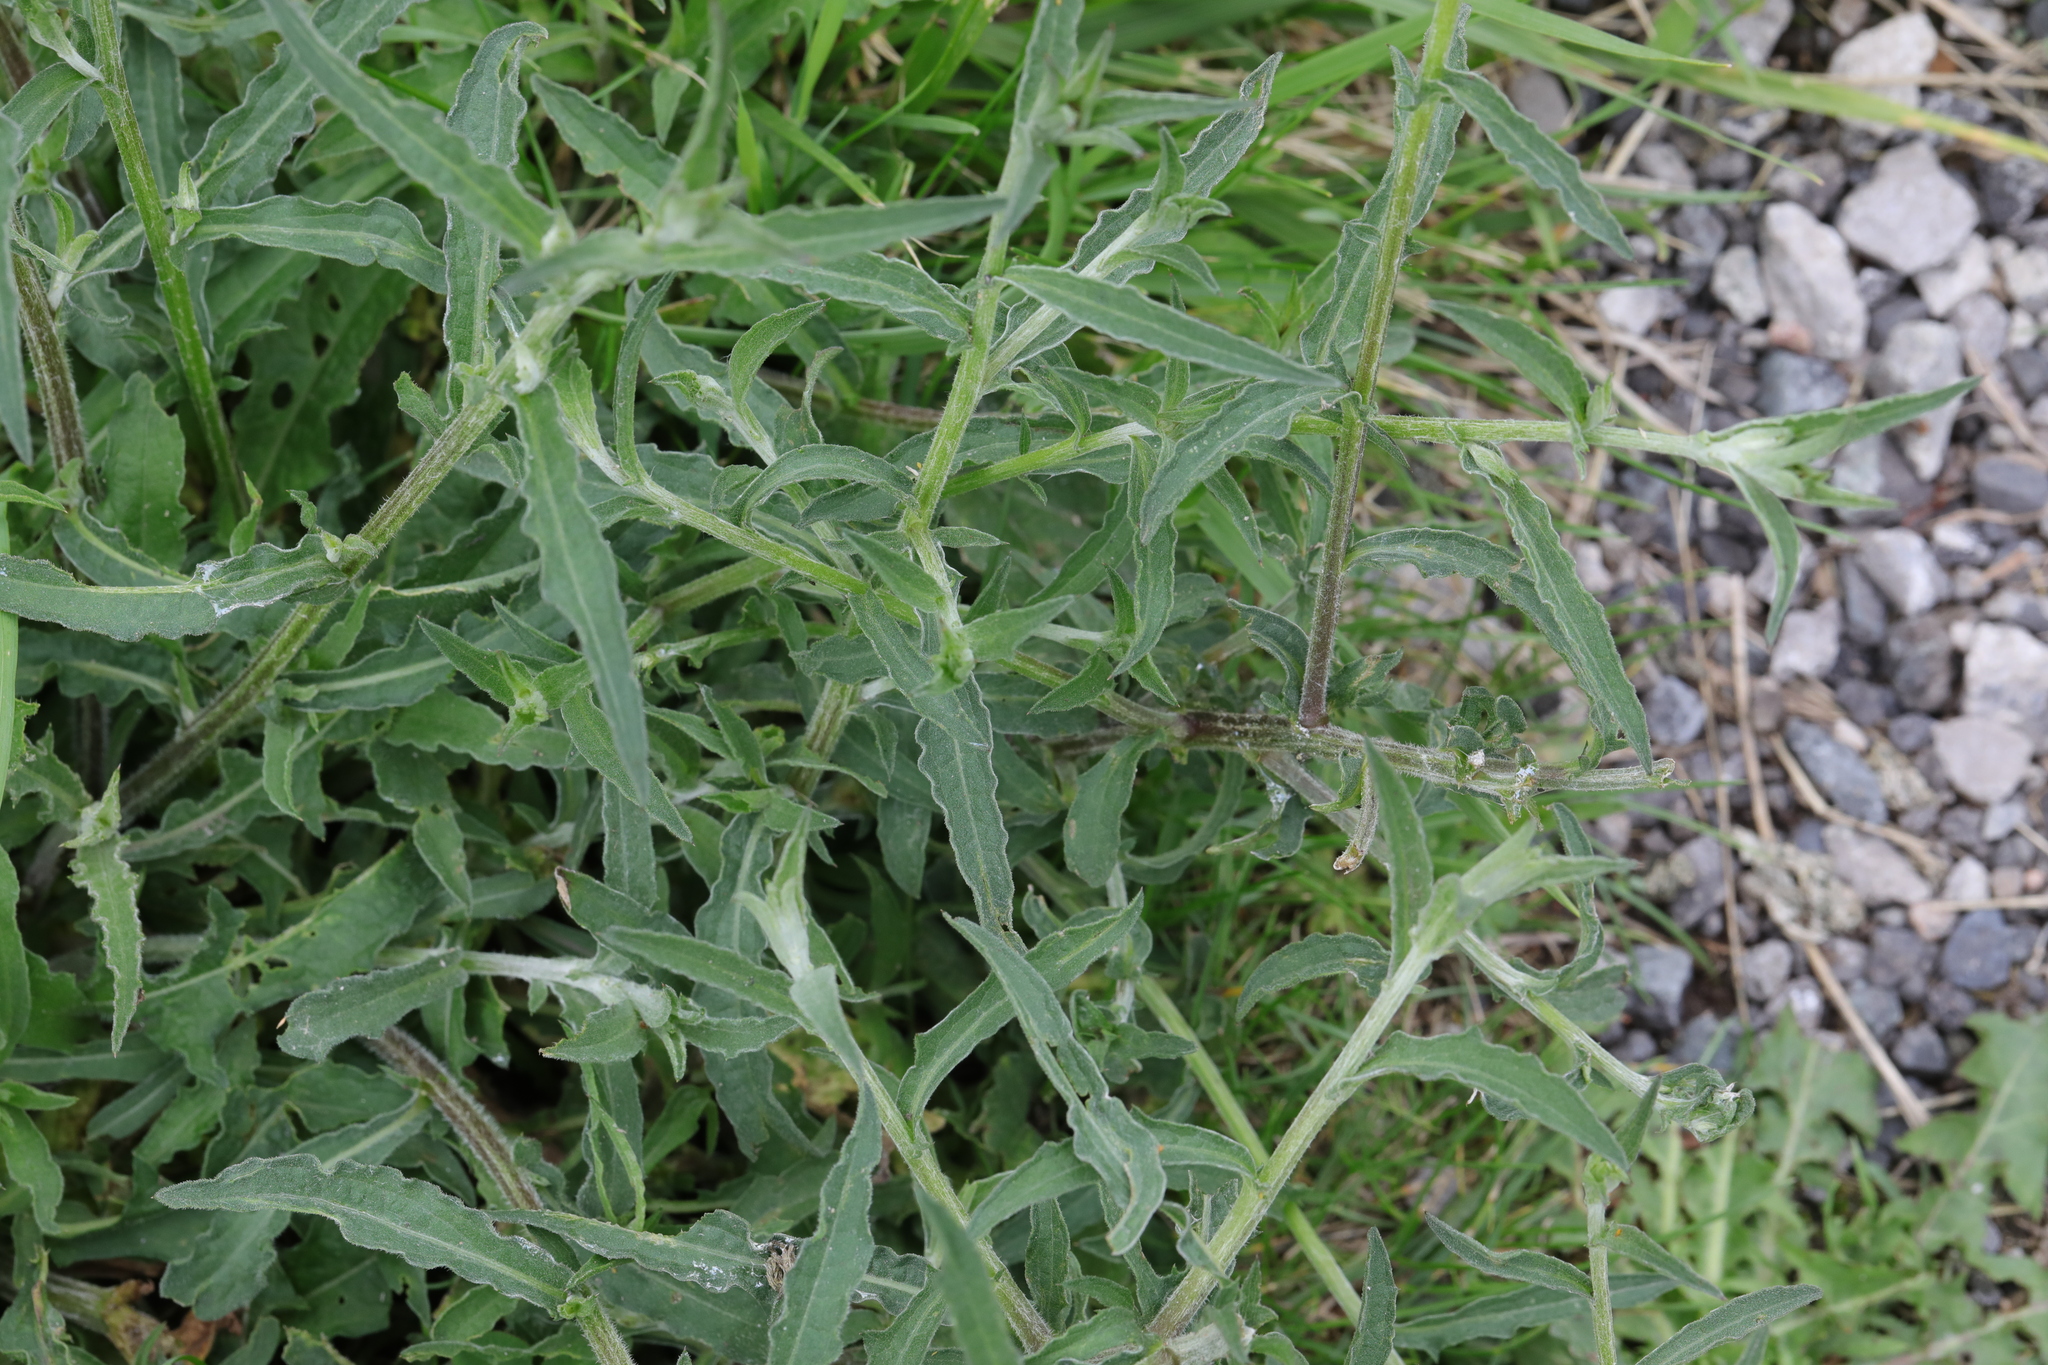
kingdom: Plantae
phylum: Tracheophyta
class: Magnoliopsida
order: Asterales
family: Asteraceae
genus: Centaurea
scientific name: Centaurea nigra
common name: Lesser knapweed
